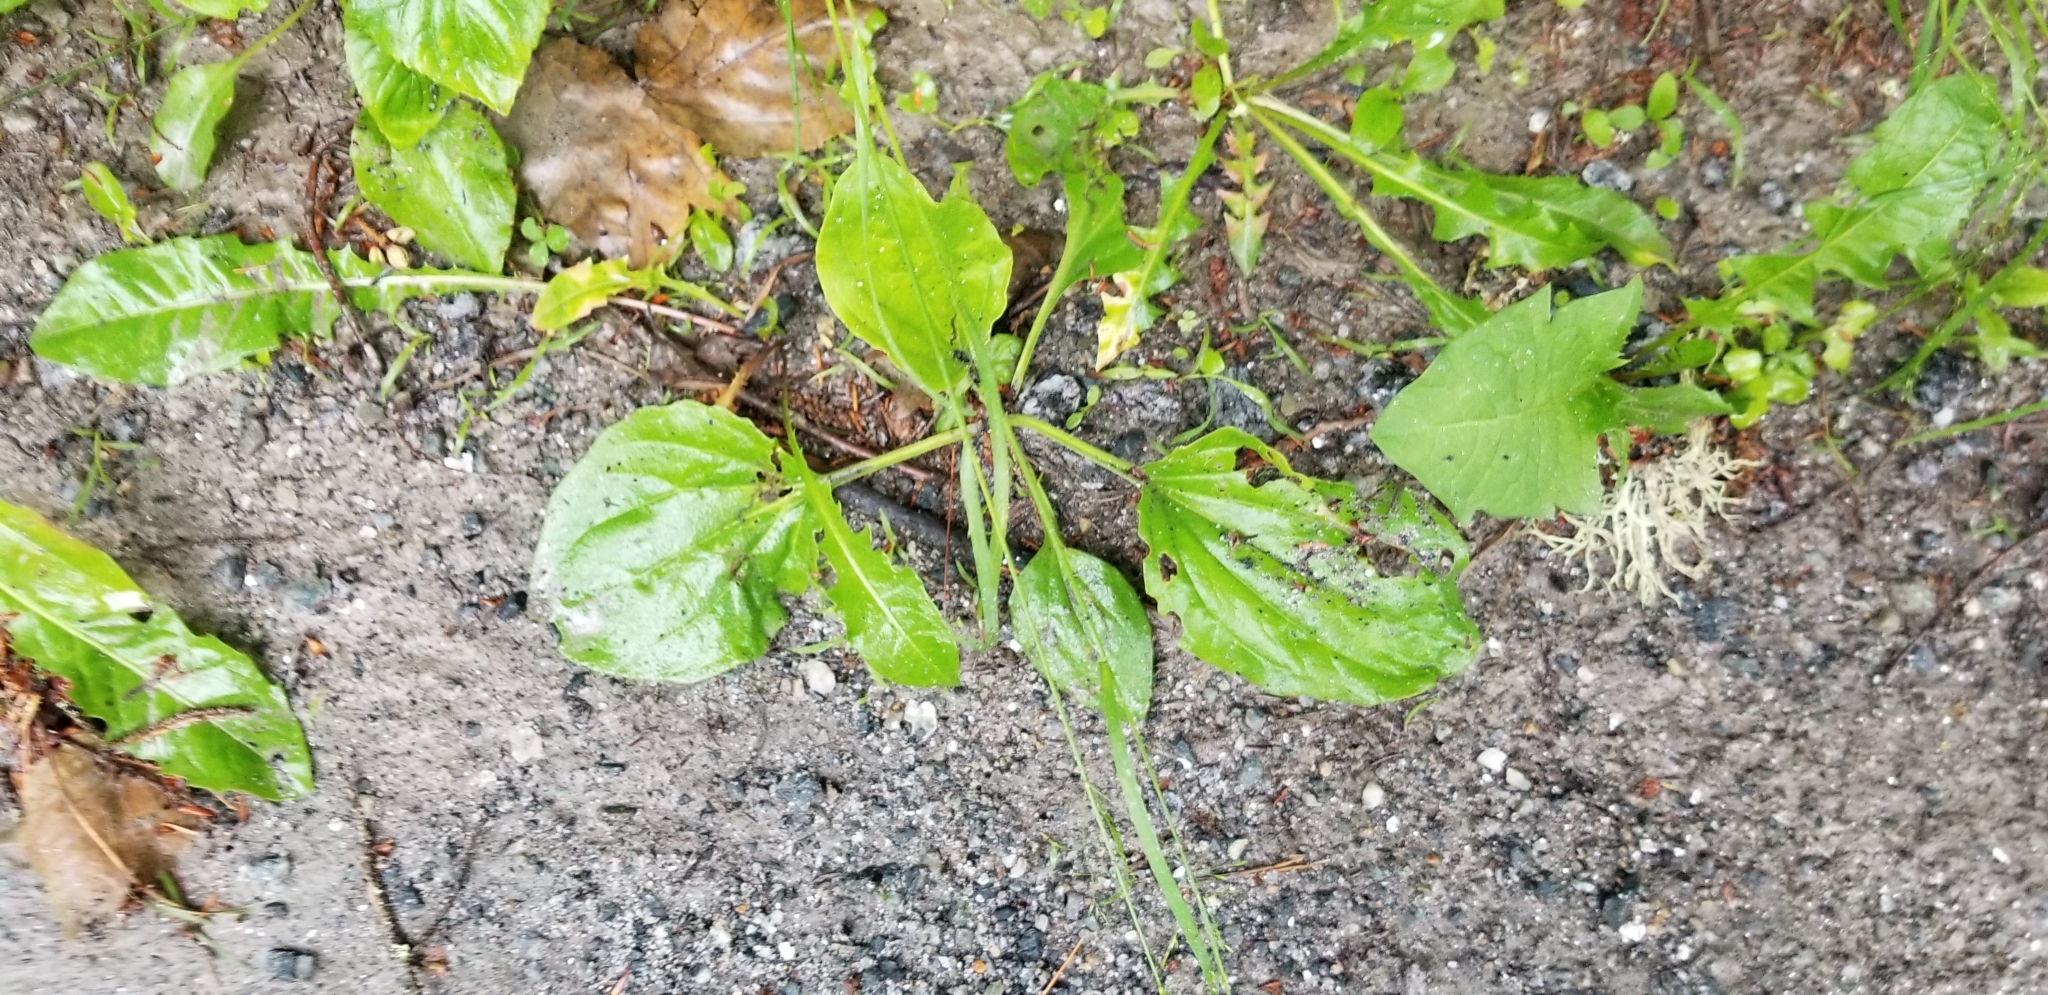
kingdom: Plantae
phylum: Tracheophyta
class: Magnoliopsida
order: Lamiales
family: Plantaginaceae
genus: Plantago
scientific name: Plantago major
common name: Common plantain
